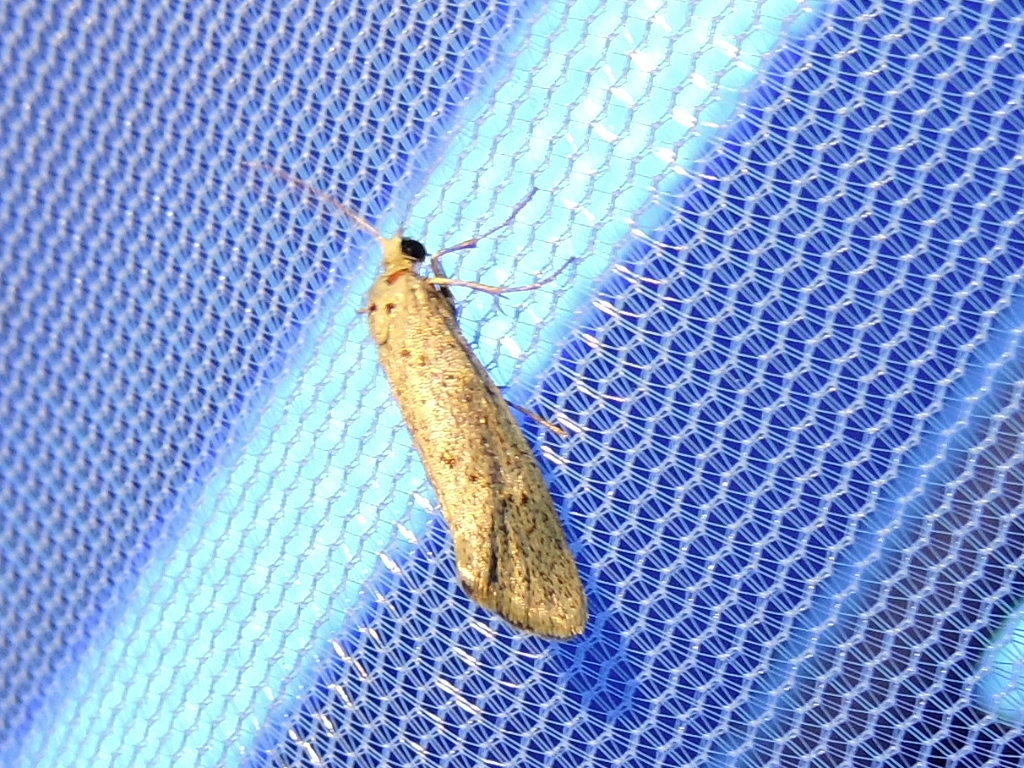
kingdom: Animalia
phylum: Arthropoda
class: Insecta
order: Lepidoptera
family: Lacturidae
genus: Lactura
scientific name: Lactura
